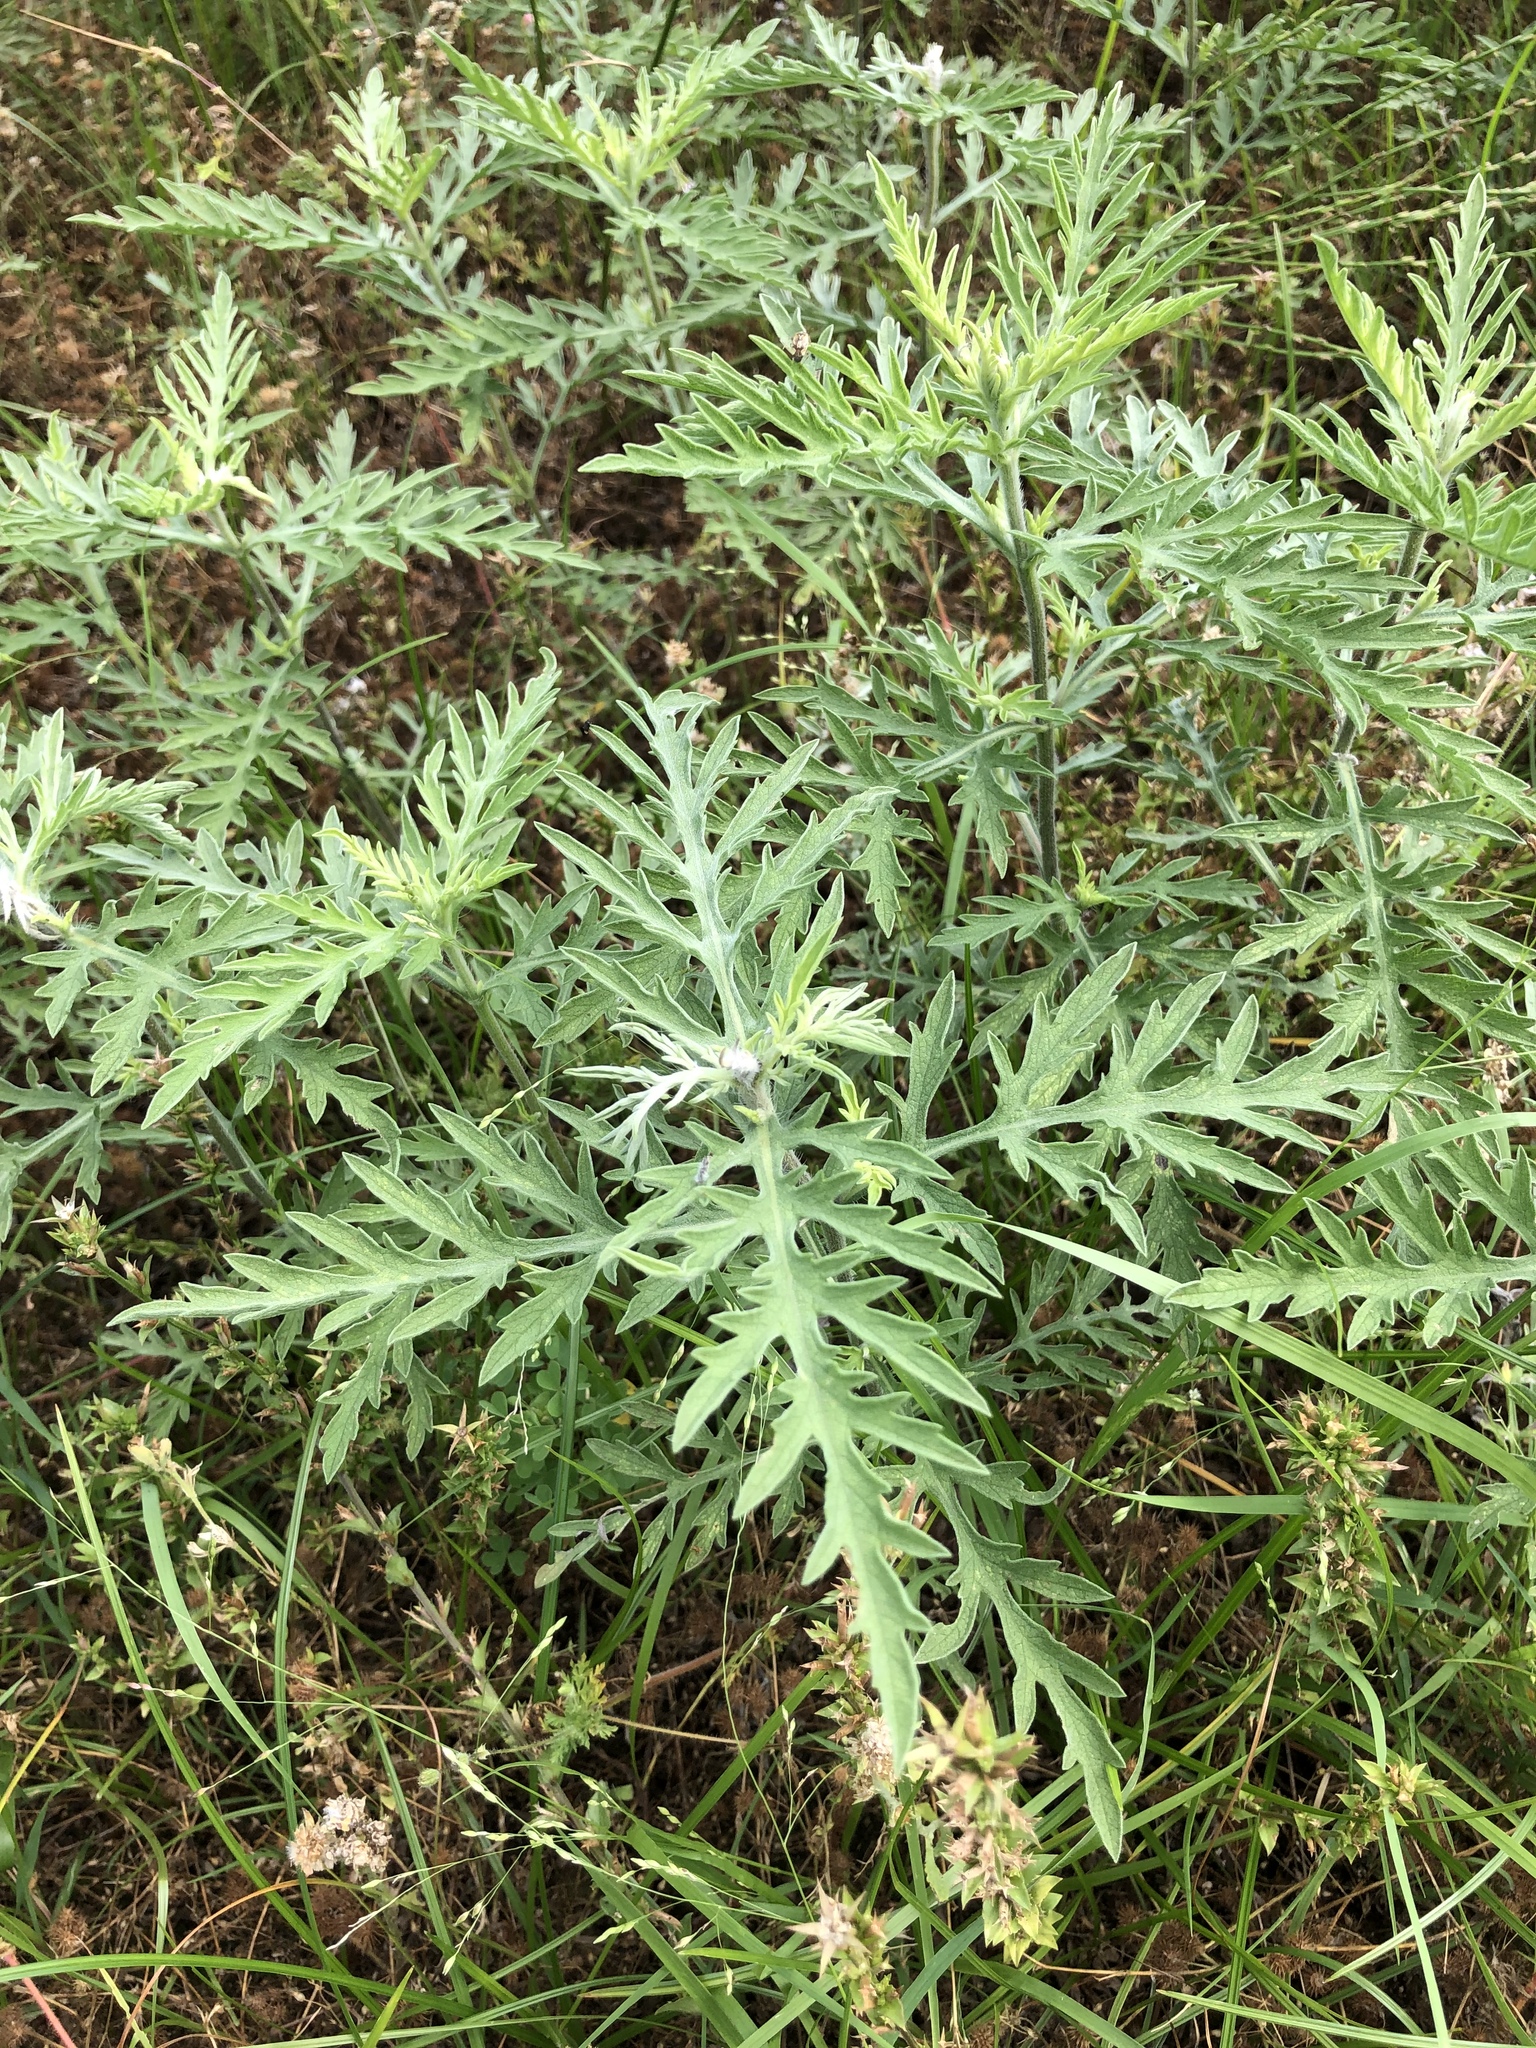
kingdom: Plantae
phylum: Tracheophyta
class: Magnoliopsida
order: Asterales
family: Asteraceae
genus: Ambrosia
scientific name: Ambrosia psilostachya
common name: Perennial ragweed
